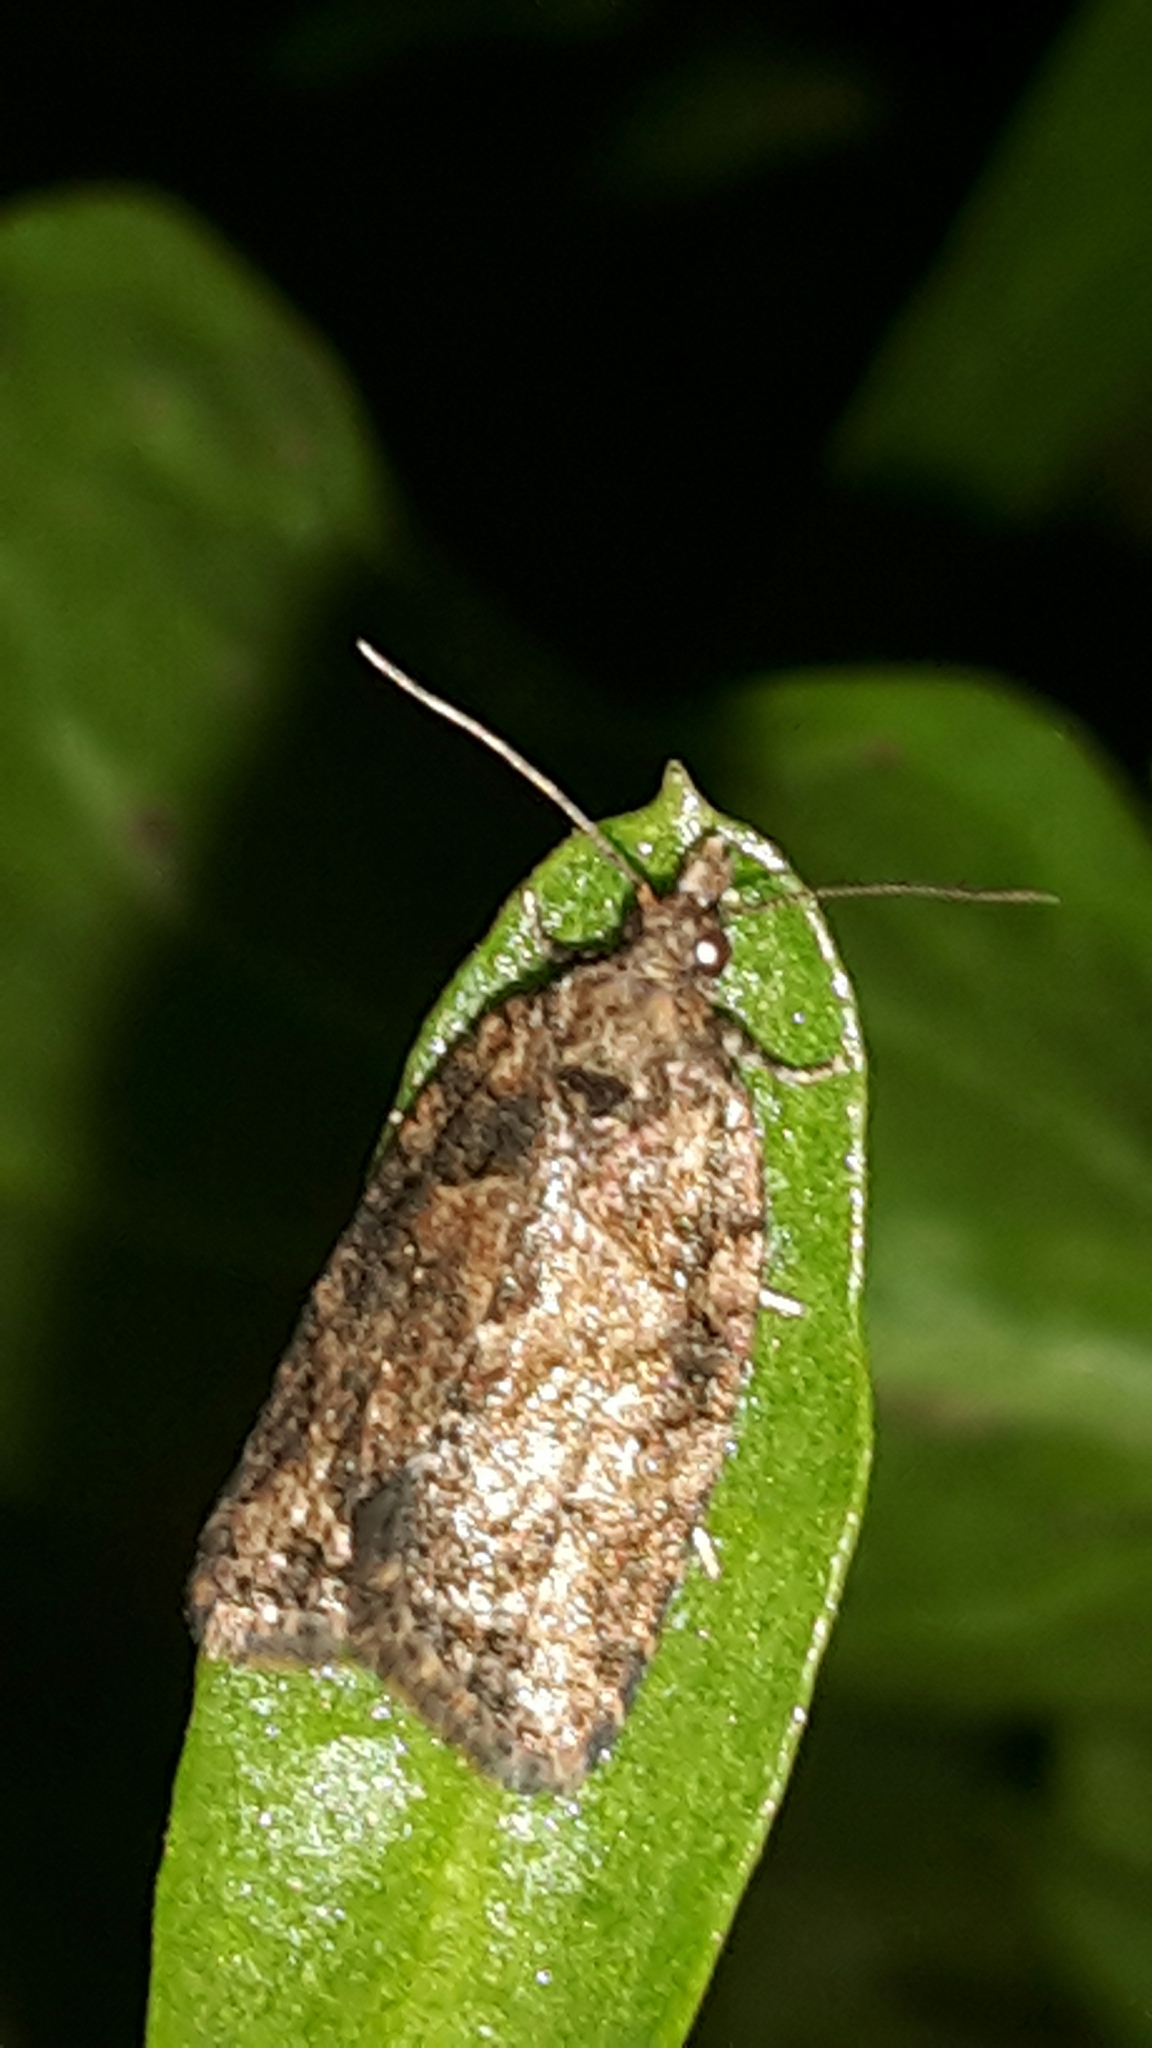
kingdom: Animalia
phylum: Arthropoda
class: Insecta
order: Lepidoptera
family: Tortricidae
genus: Capua
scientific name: Capua intractana
